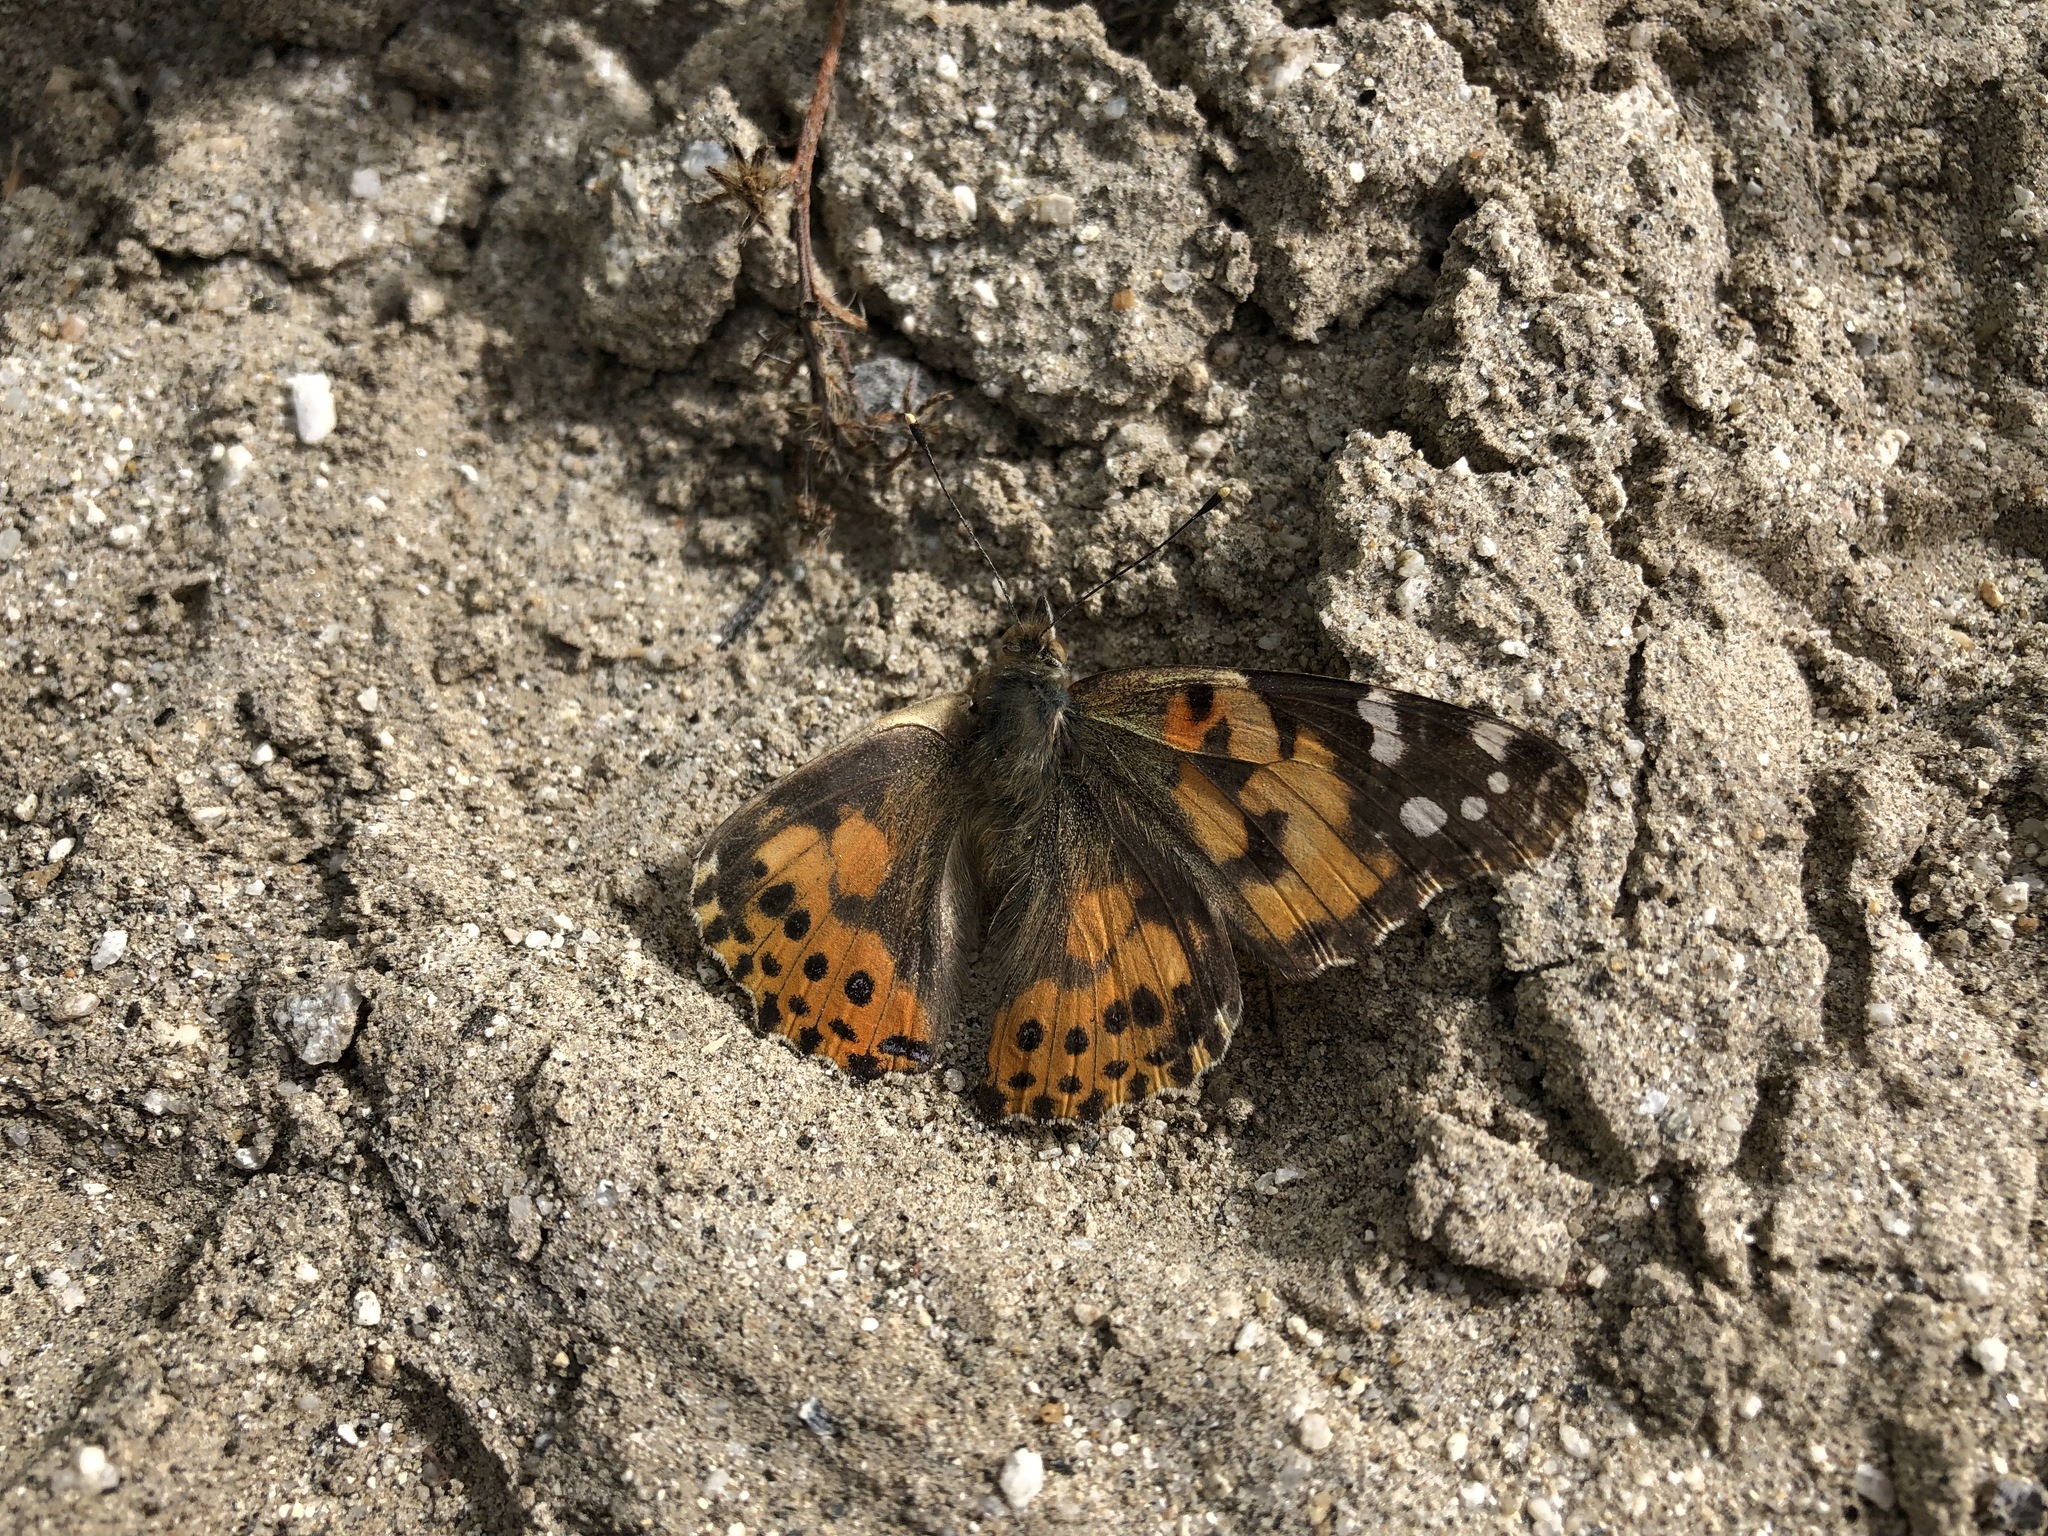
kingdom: Animalia
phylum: Arthropoda
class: Insecta
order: Lepidoptera
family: Nymphalidae
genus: Vanessa
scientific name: Vanessa cardui
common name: Painted lady
